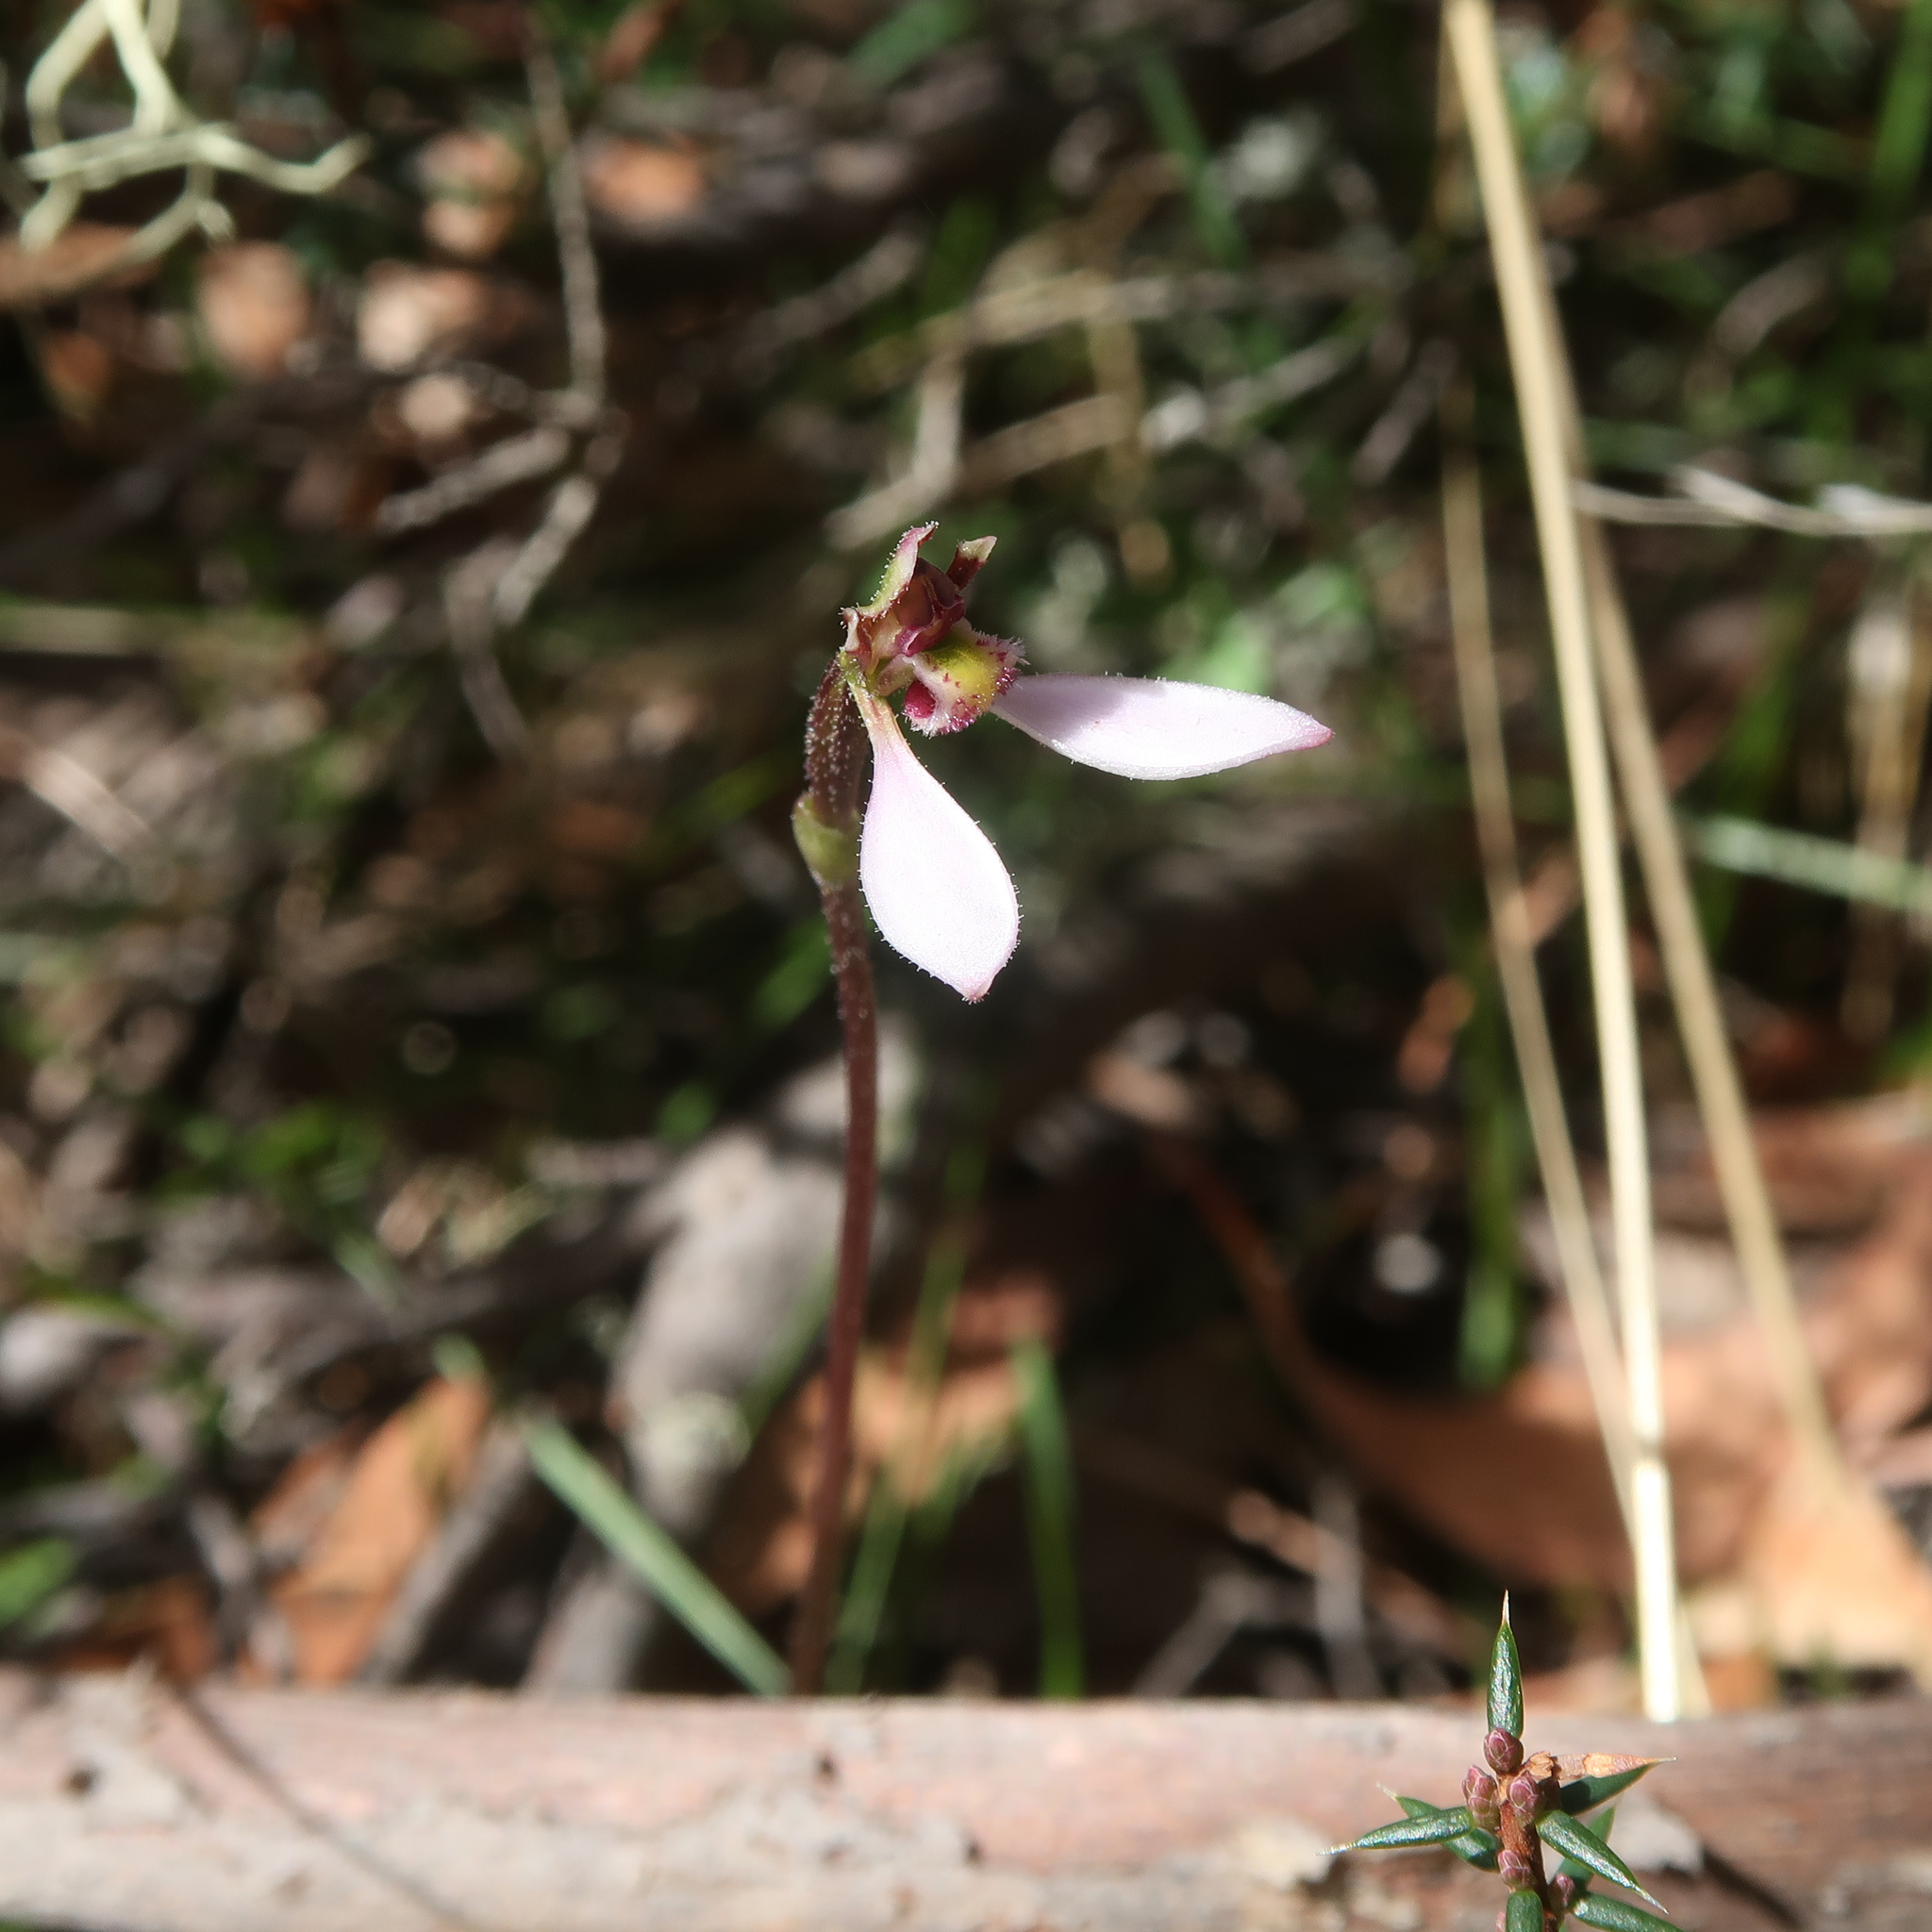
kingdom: Plantae
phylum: Tracheophyta
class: Liliopsida
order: Asparagales
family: Orchidaceae
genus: Eriochilus
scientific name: Eriochilus cucullatus
